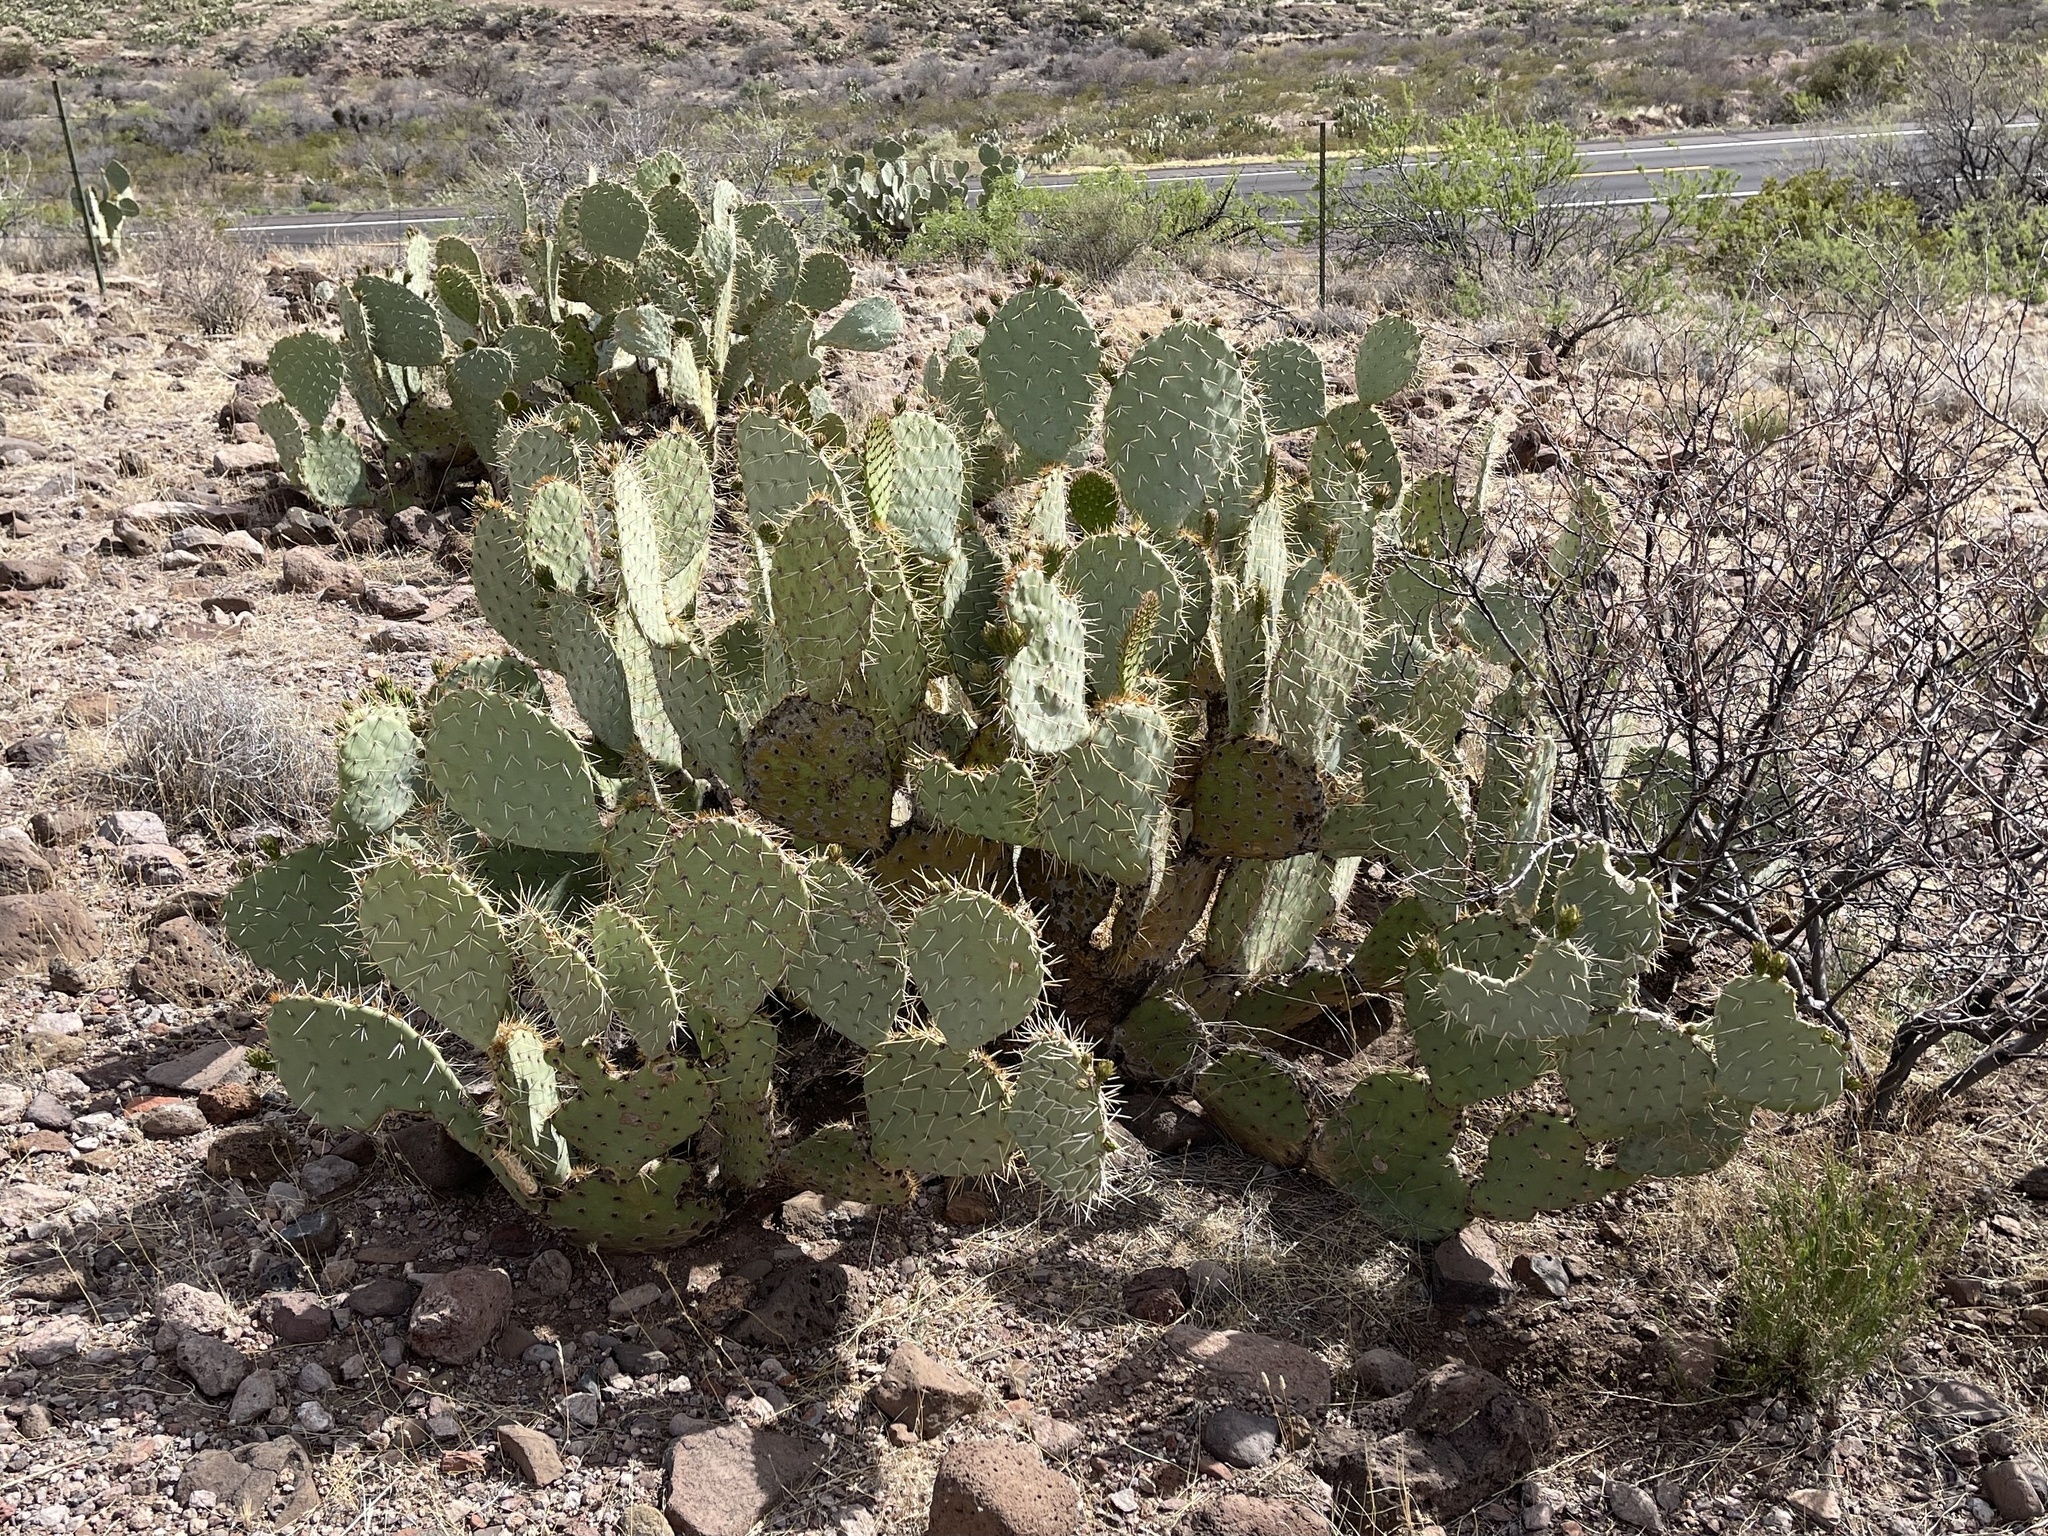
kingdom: Plantae
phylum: Tracheophyta
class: Magnoliopsida
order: Caryophyllales
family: Cactaceae
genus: Opuntia
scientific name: Opuntia engelmannii
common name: Cactus-apple
